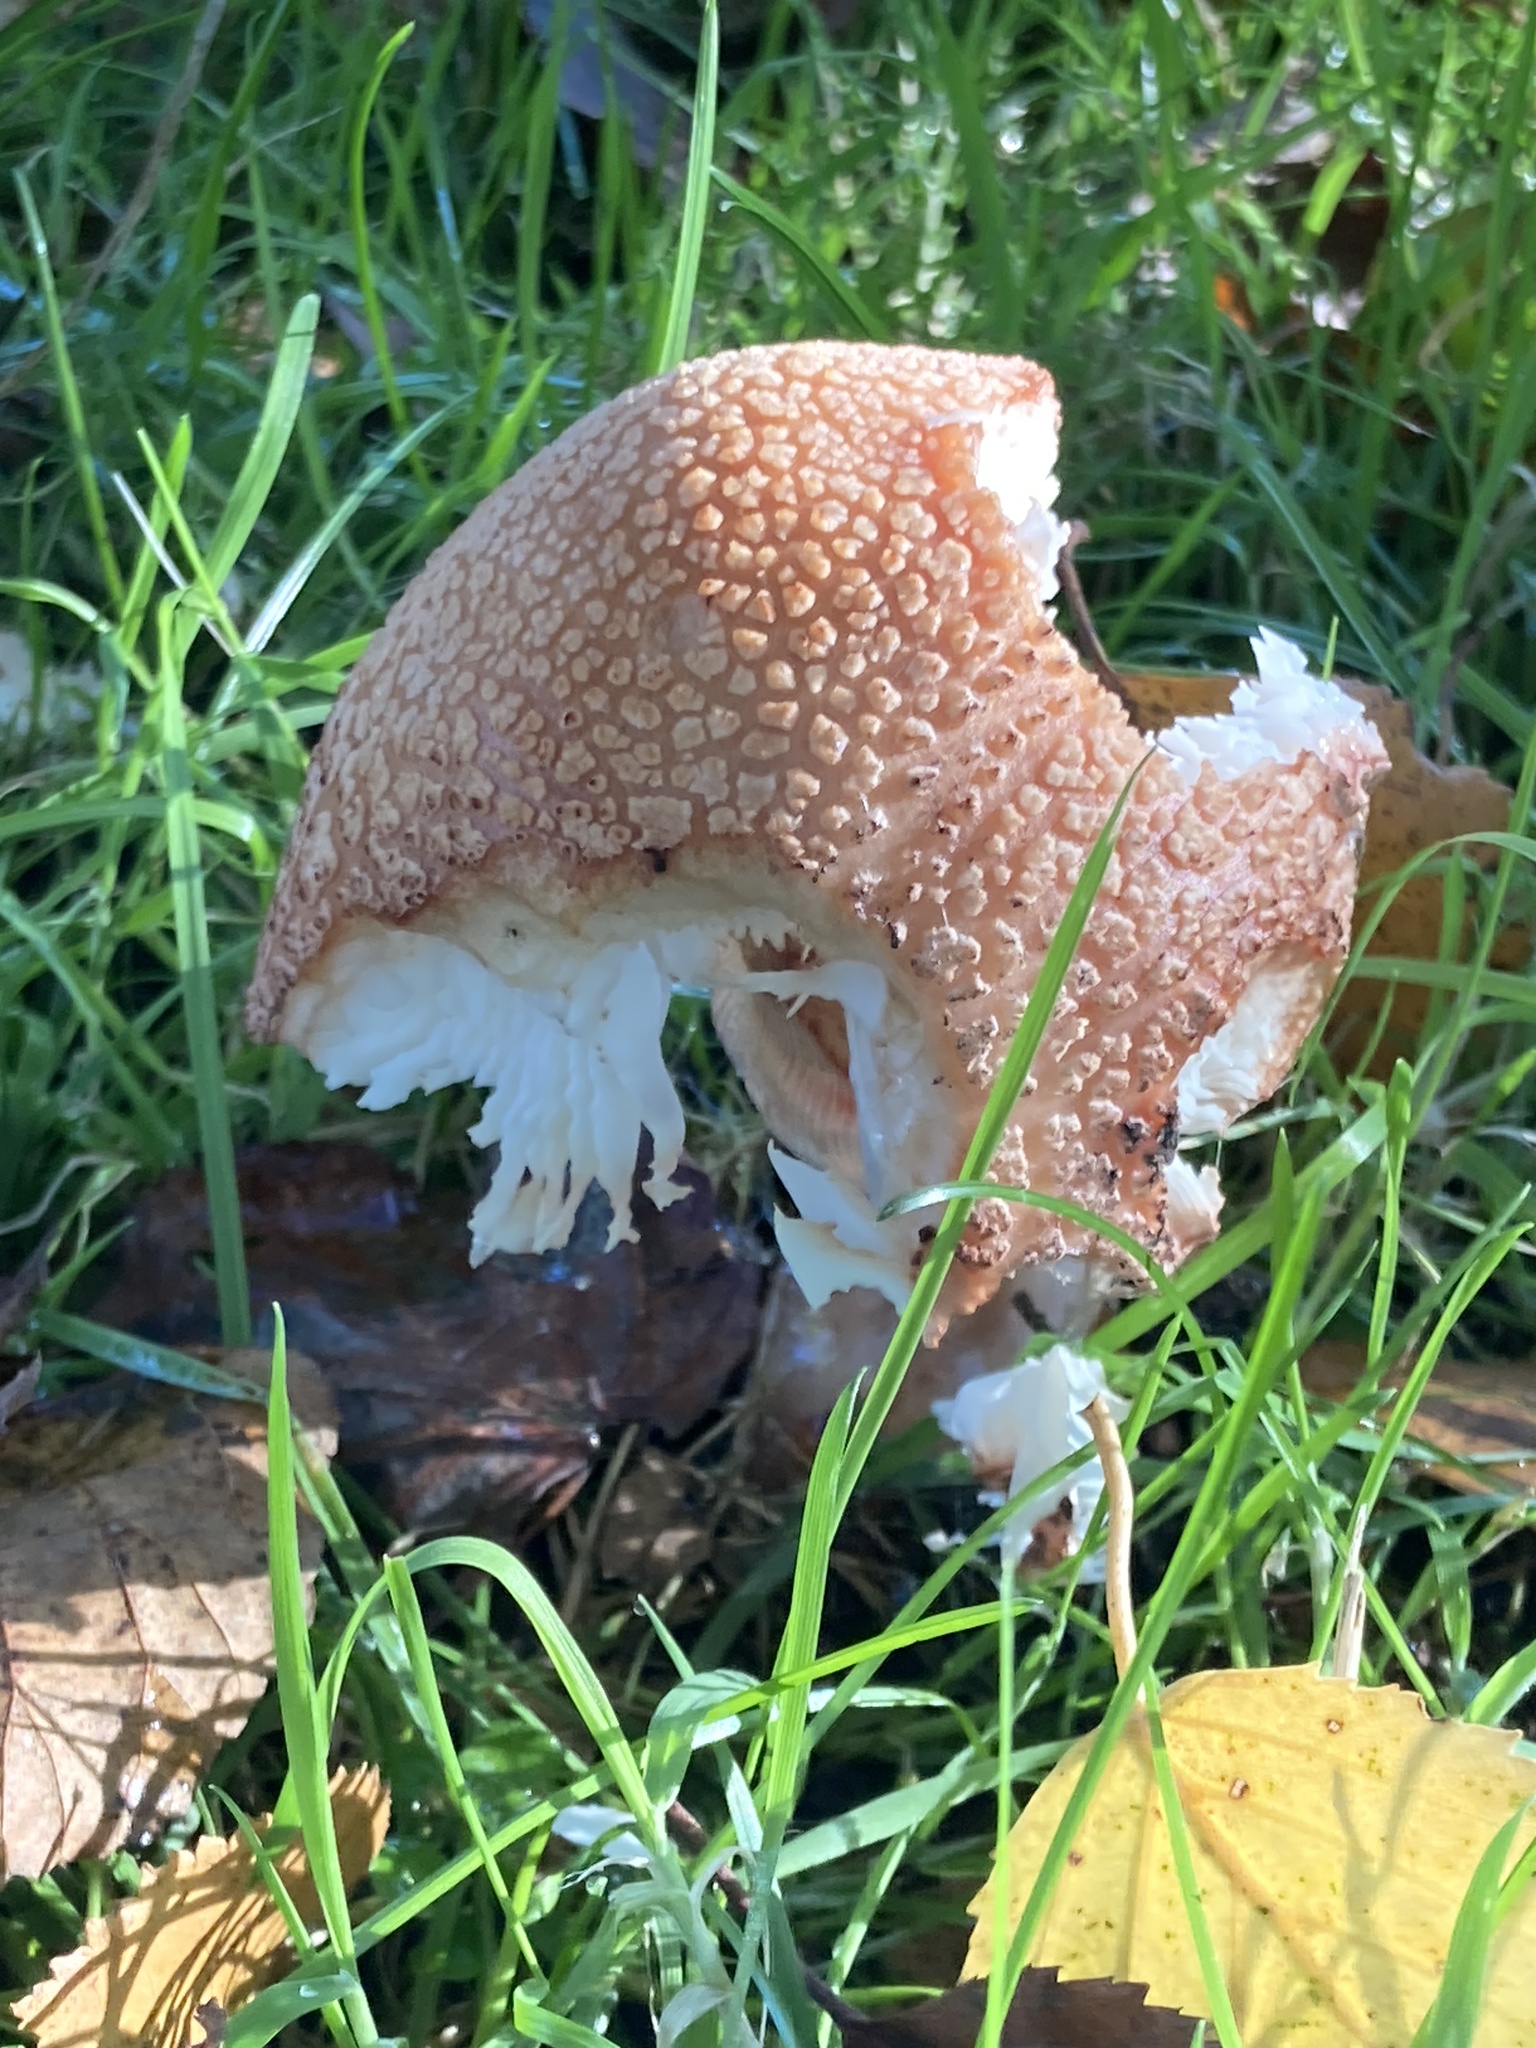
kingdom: Fungi
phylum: Basidiomycota
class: Agaricomycetes
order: Agaricales
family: Amanitaceae
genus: Amanita
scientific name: Amanita rubescens
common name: Blusher
